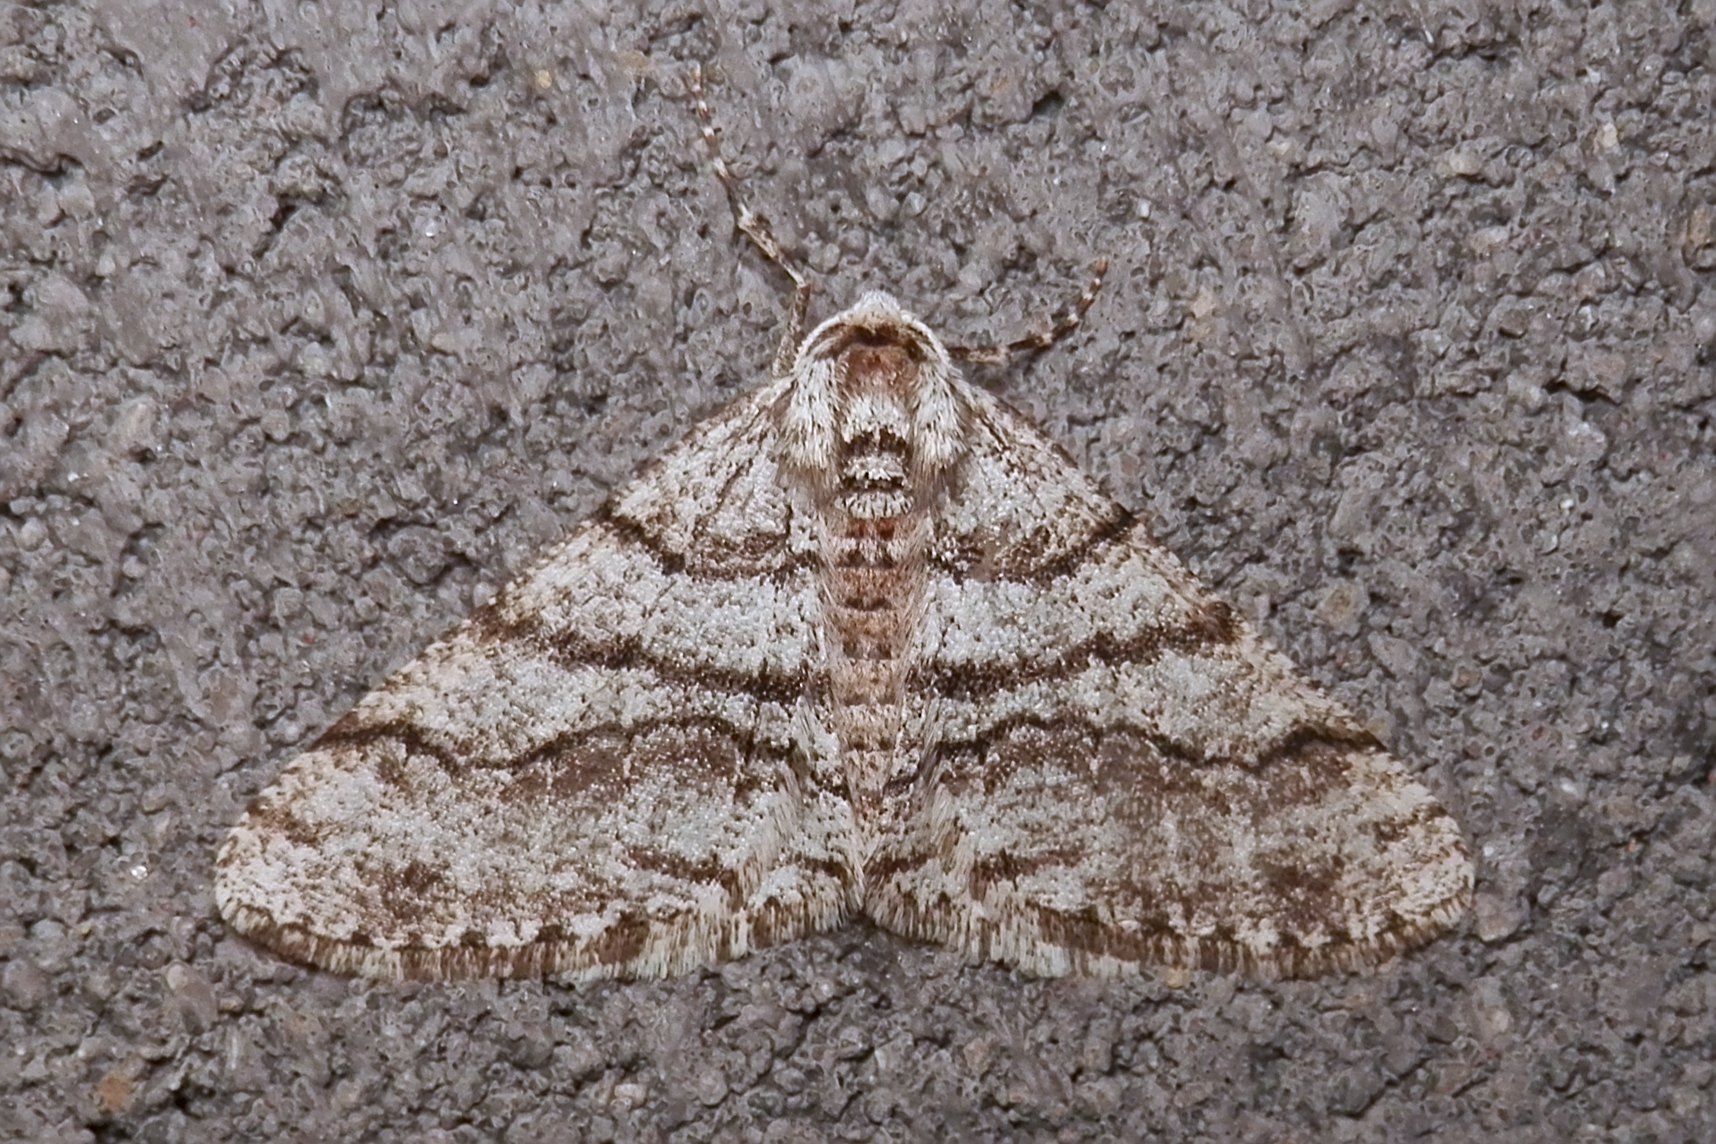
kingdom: Animalia
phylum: Arthropoda
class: Insecta
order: Lepidoptera
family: Geometridae
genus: Phigalia
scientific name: Phigalia titea
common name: Spiny looper
